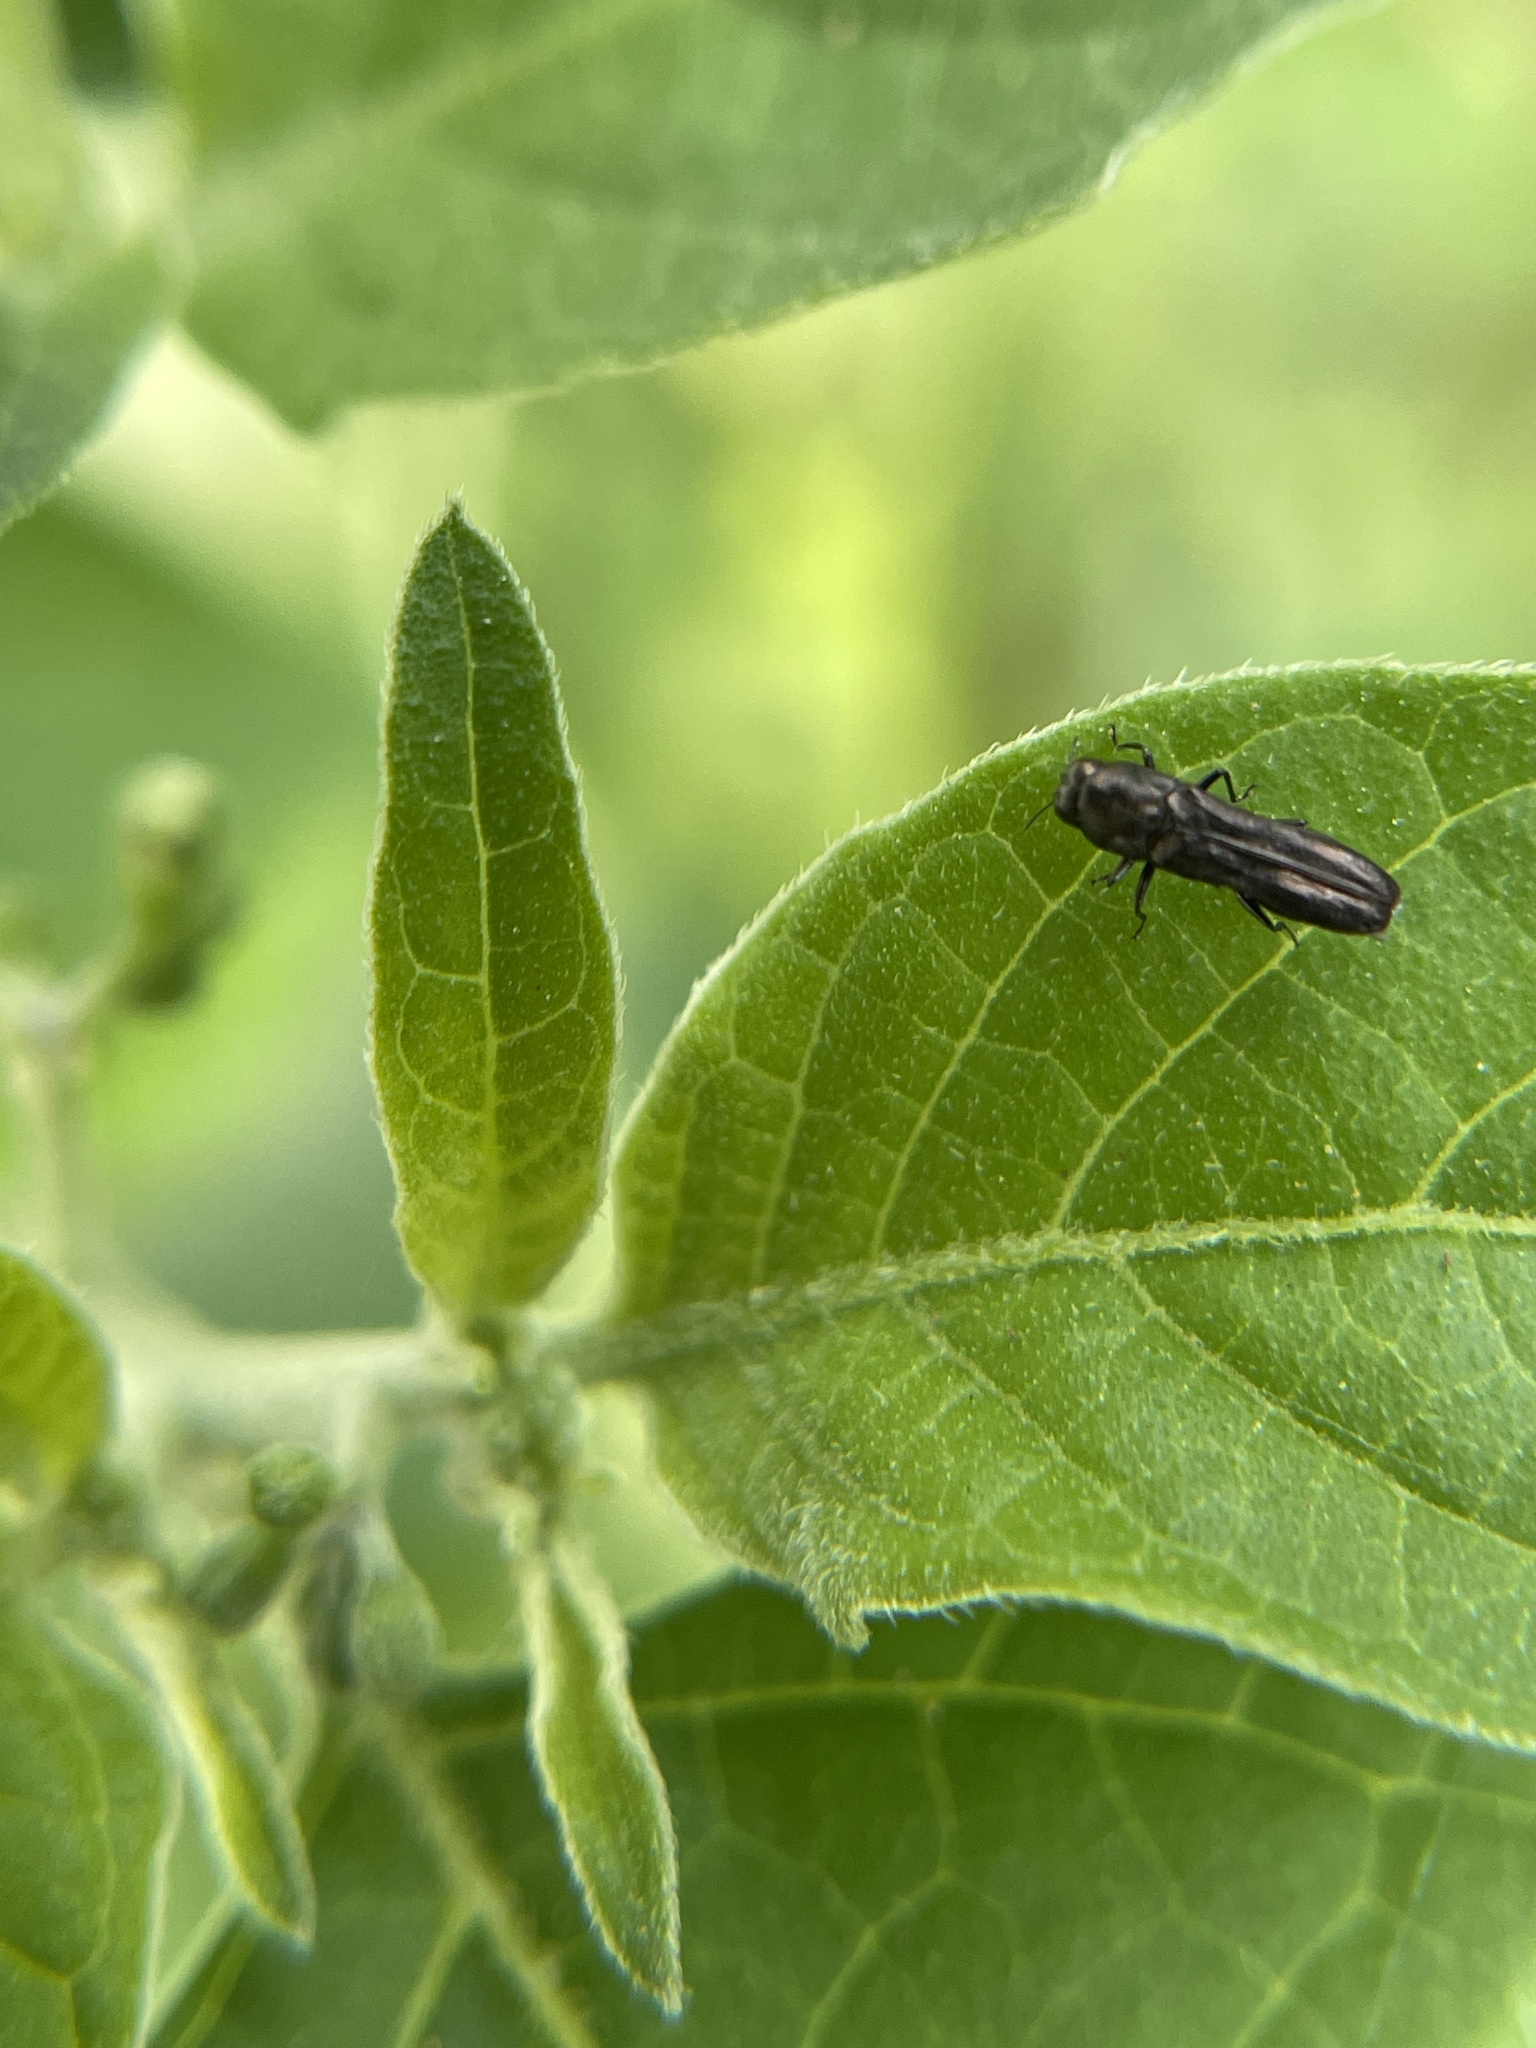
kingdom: Animalia
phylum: Arthropoda
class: Insecta
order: Coleoptera
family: Buprestidae
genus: Paragrilus
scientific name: Paragrilus rugatulus
